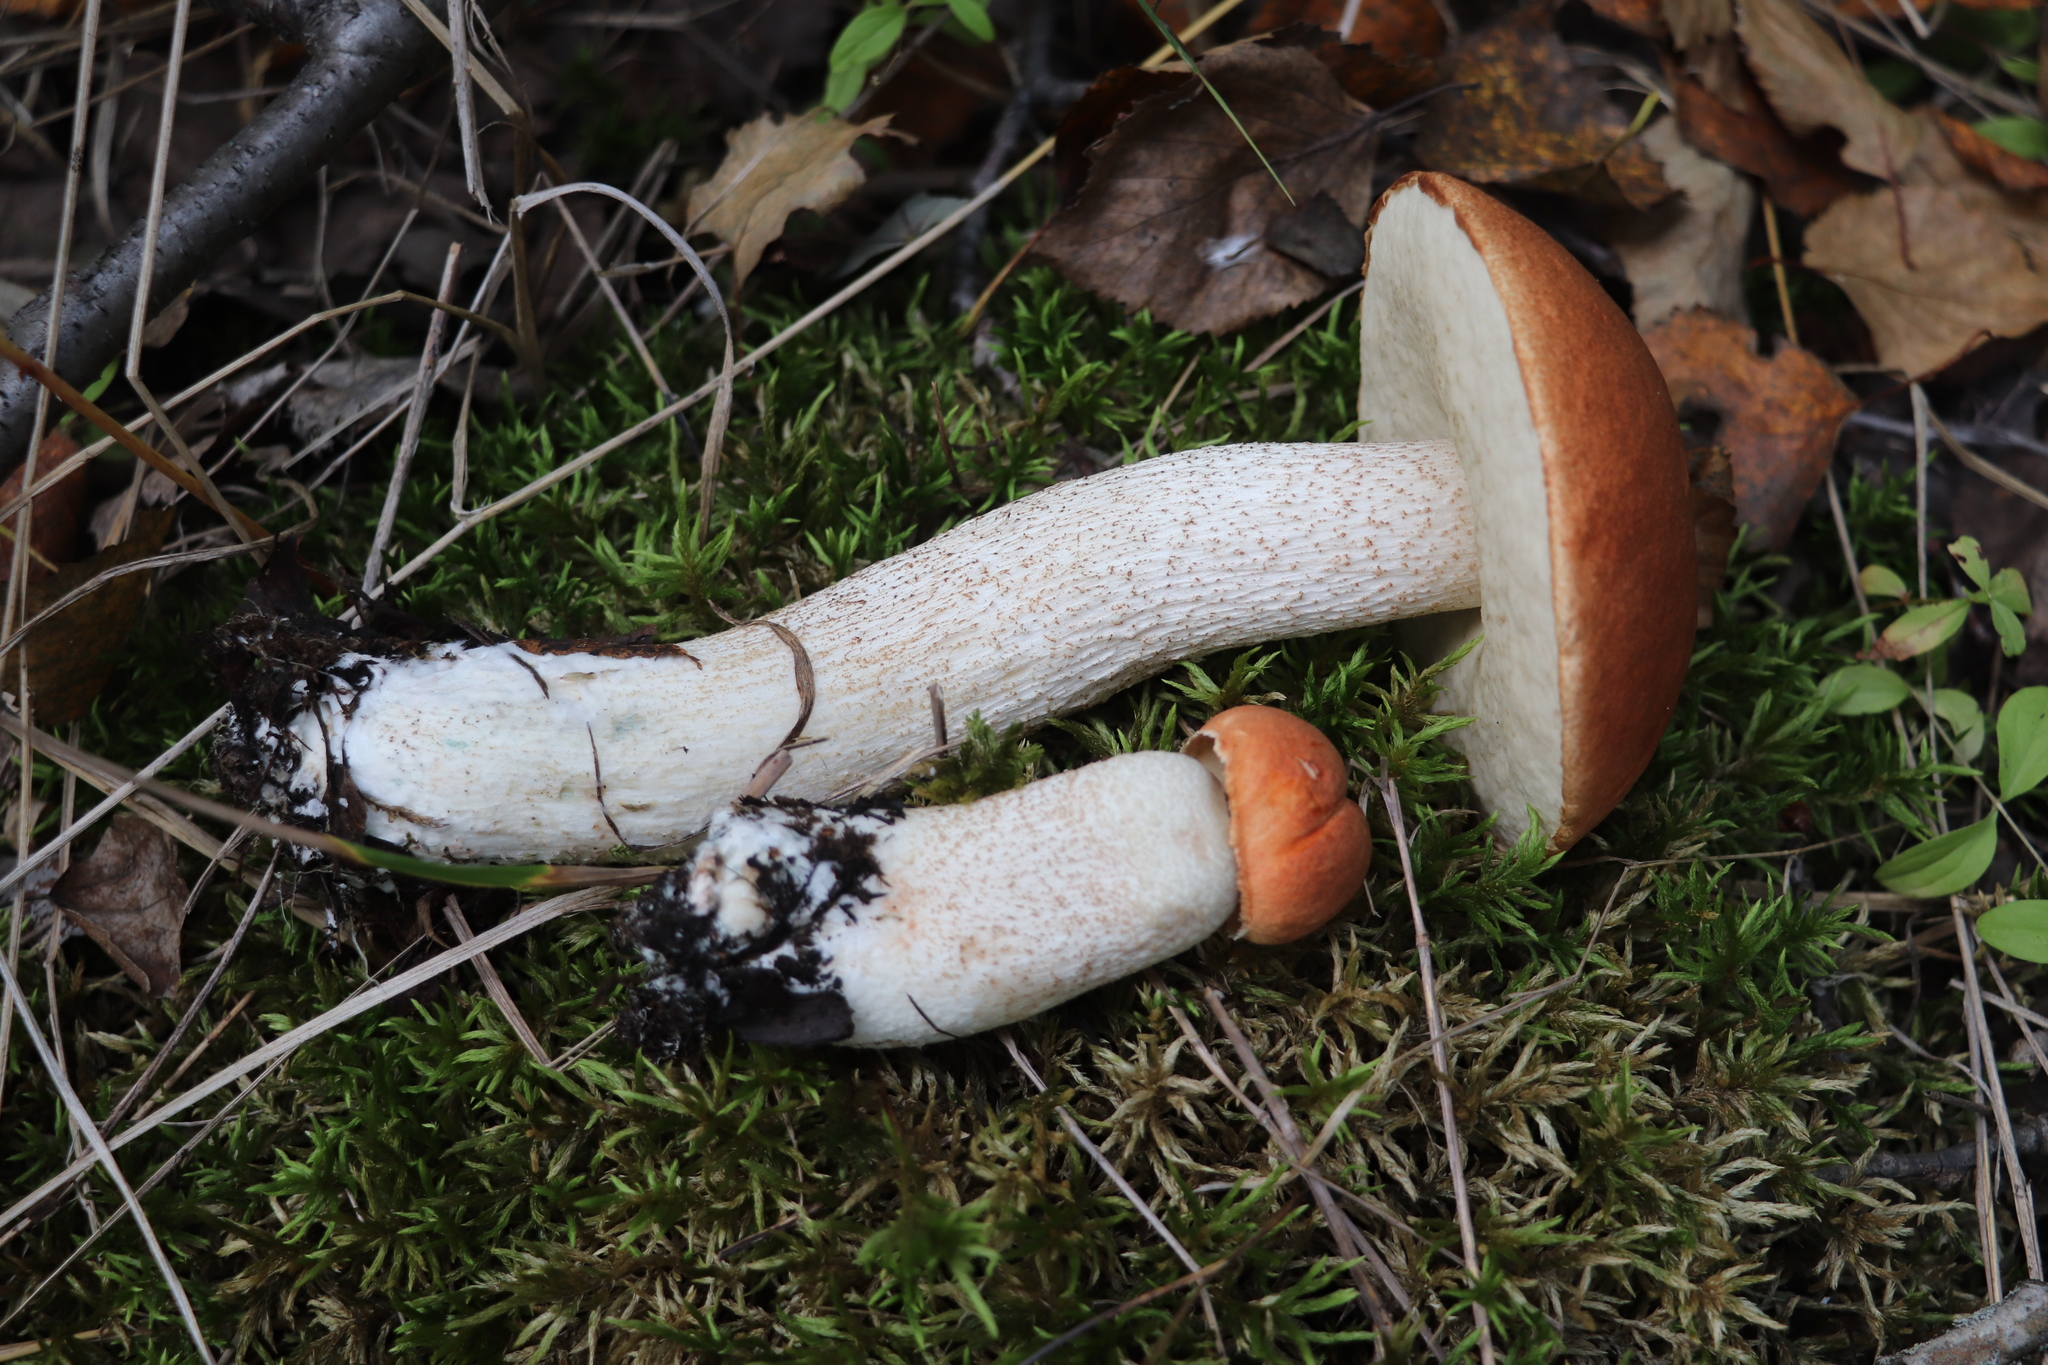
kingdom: Fungi
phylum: Basidiomycota
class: Agaricomycetes
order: Boletales
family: Boletaceae
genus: Leccinum
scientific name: Leccinum aurantiacum
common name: Orange bolete
